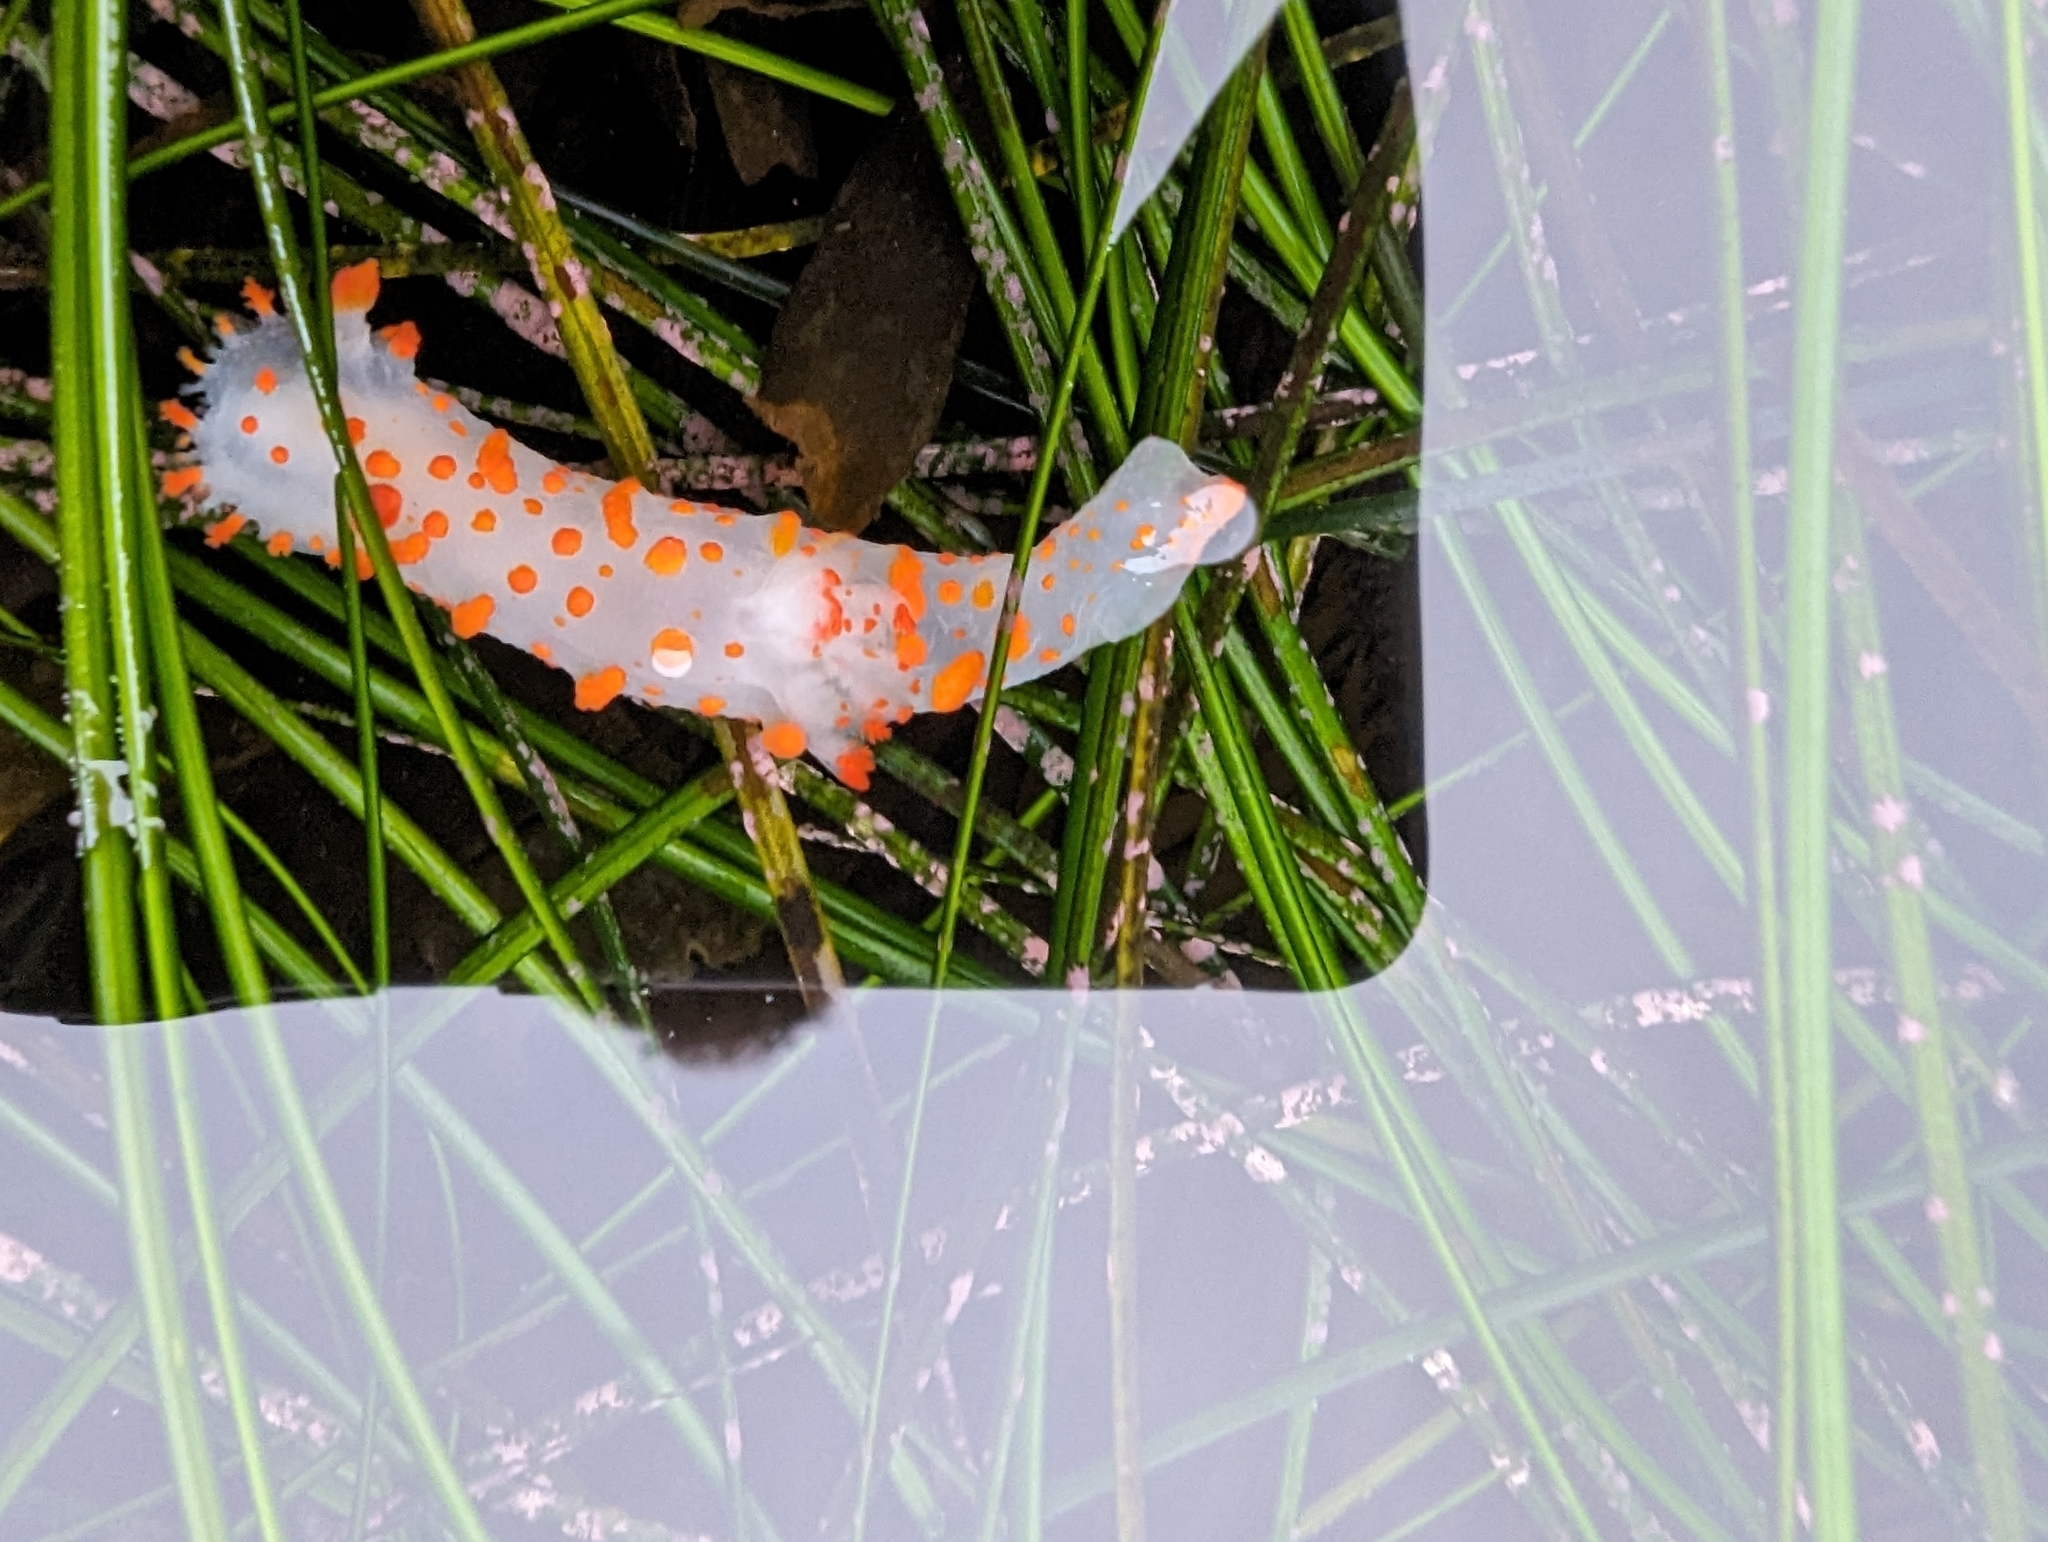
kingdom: Animalia
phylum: Mollusca
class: Gastropoda
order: Nudibranchia
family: Polyceridae
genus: Triopha
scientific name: Triopha catalinae
